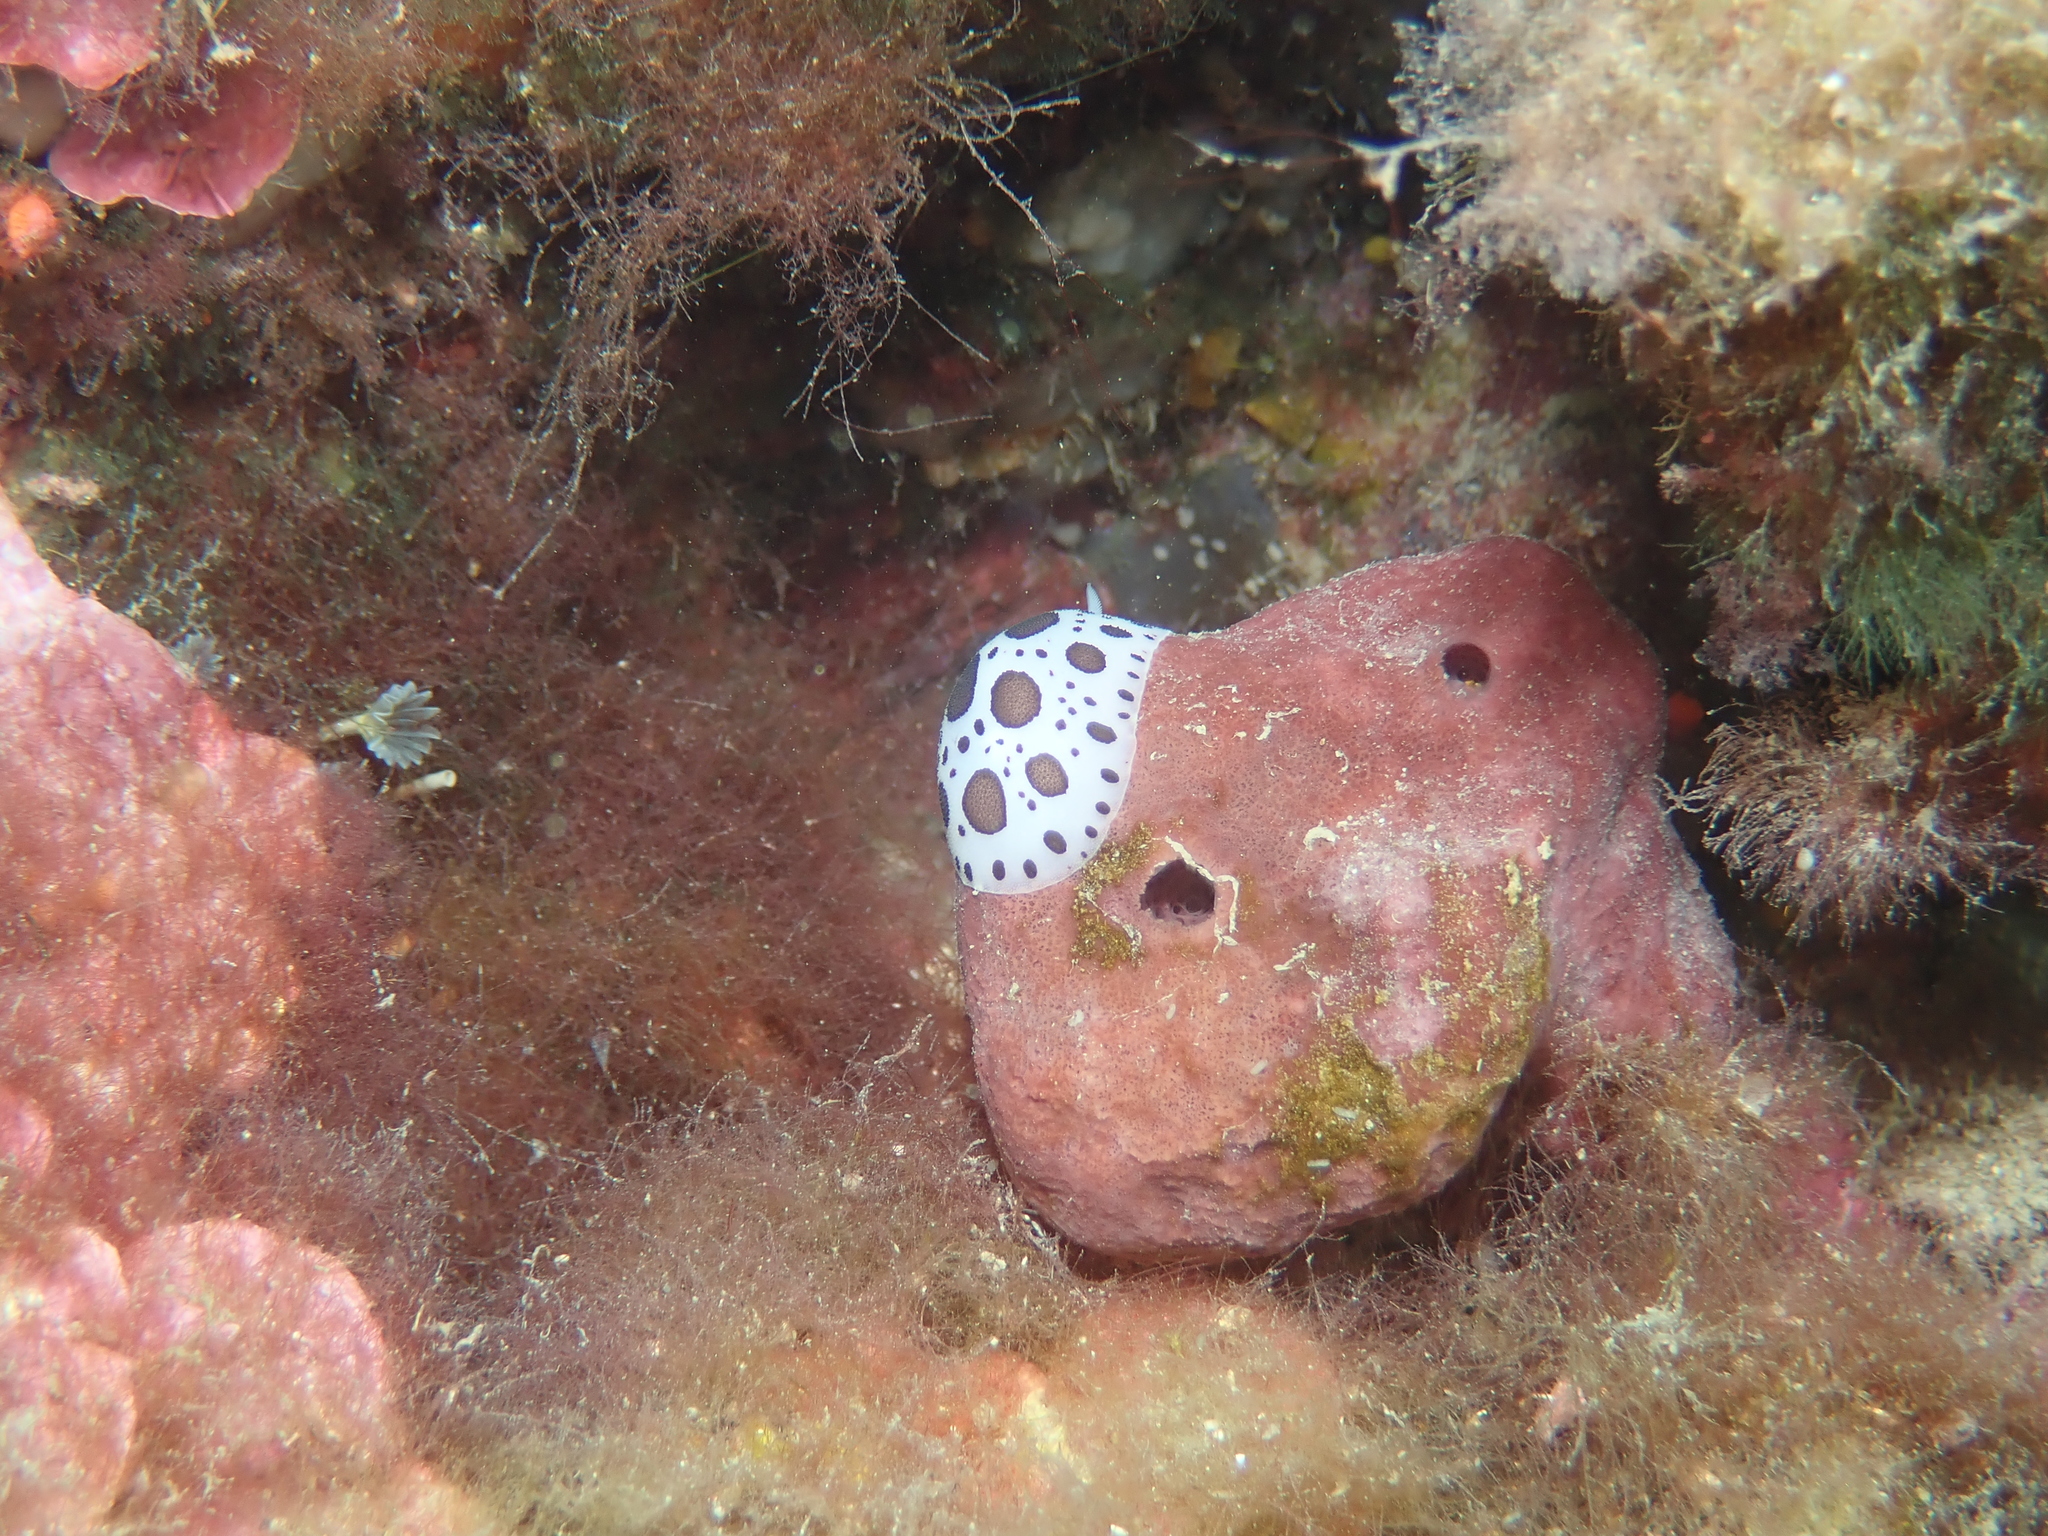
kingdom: Animalia
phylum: Mollusca
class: Gastropoda
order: Nudibranchia
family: Discodorididae
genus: Peltodoris
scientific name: Peltodoris atromaculata
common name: Swiss cow nudibranch
